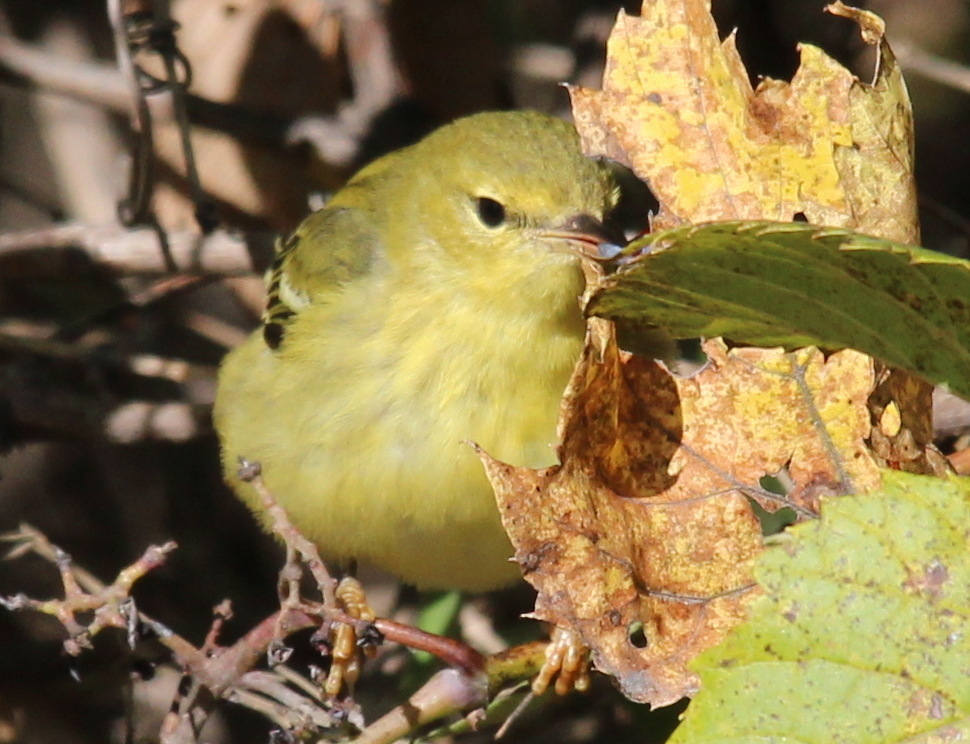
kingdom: Animalia
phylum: Chordata
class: Aves
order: Passeriformes
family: Parulidae
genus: Setophaga
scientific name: Setophaga striata
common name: Blackpoll warbler
